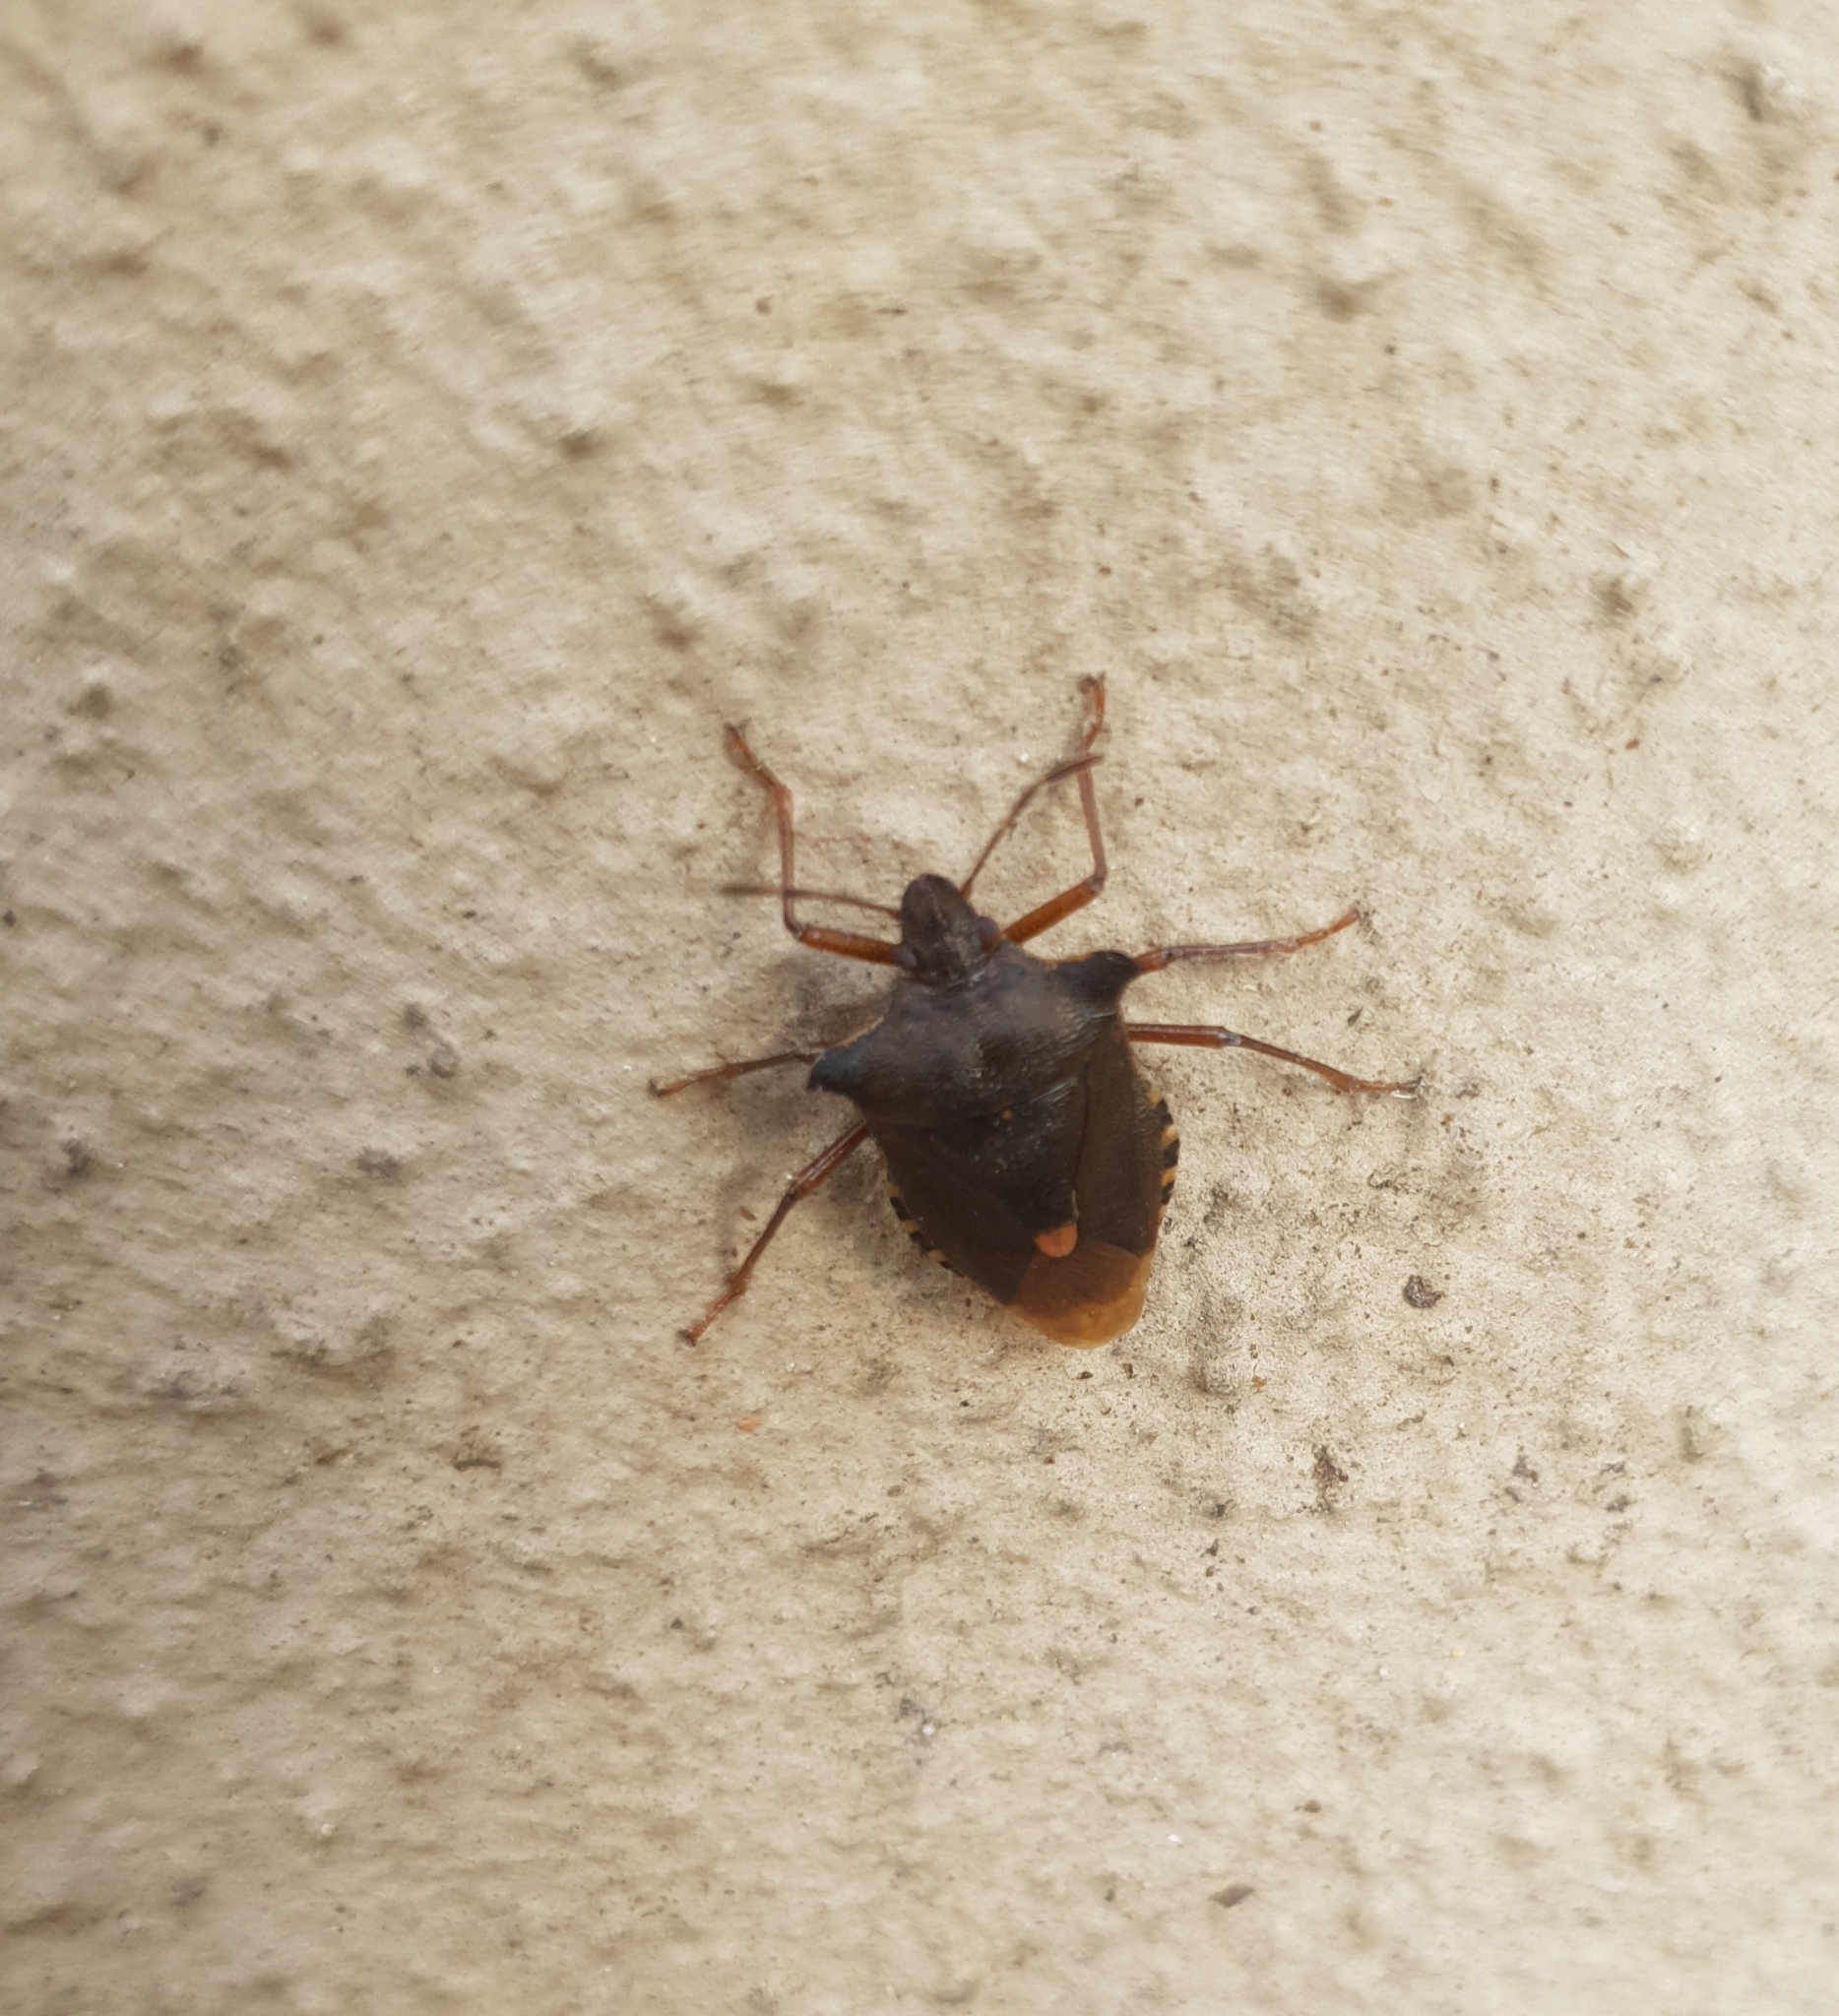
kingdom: Animalia
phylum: Arthropoda
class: Insecta
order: Hemiptera
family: Pentatomidae
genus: Pentatoma
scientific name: Pentatoma rufipes
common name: Forest bug
